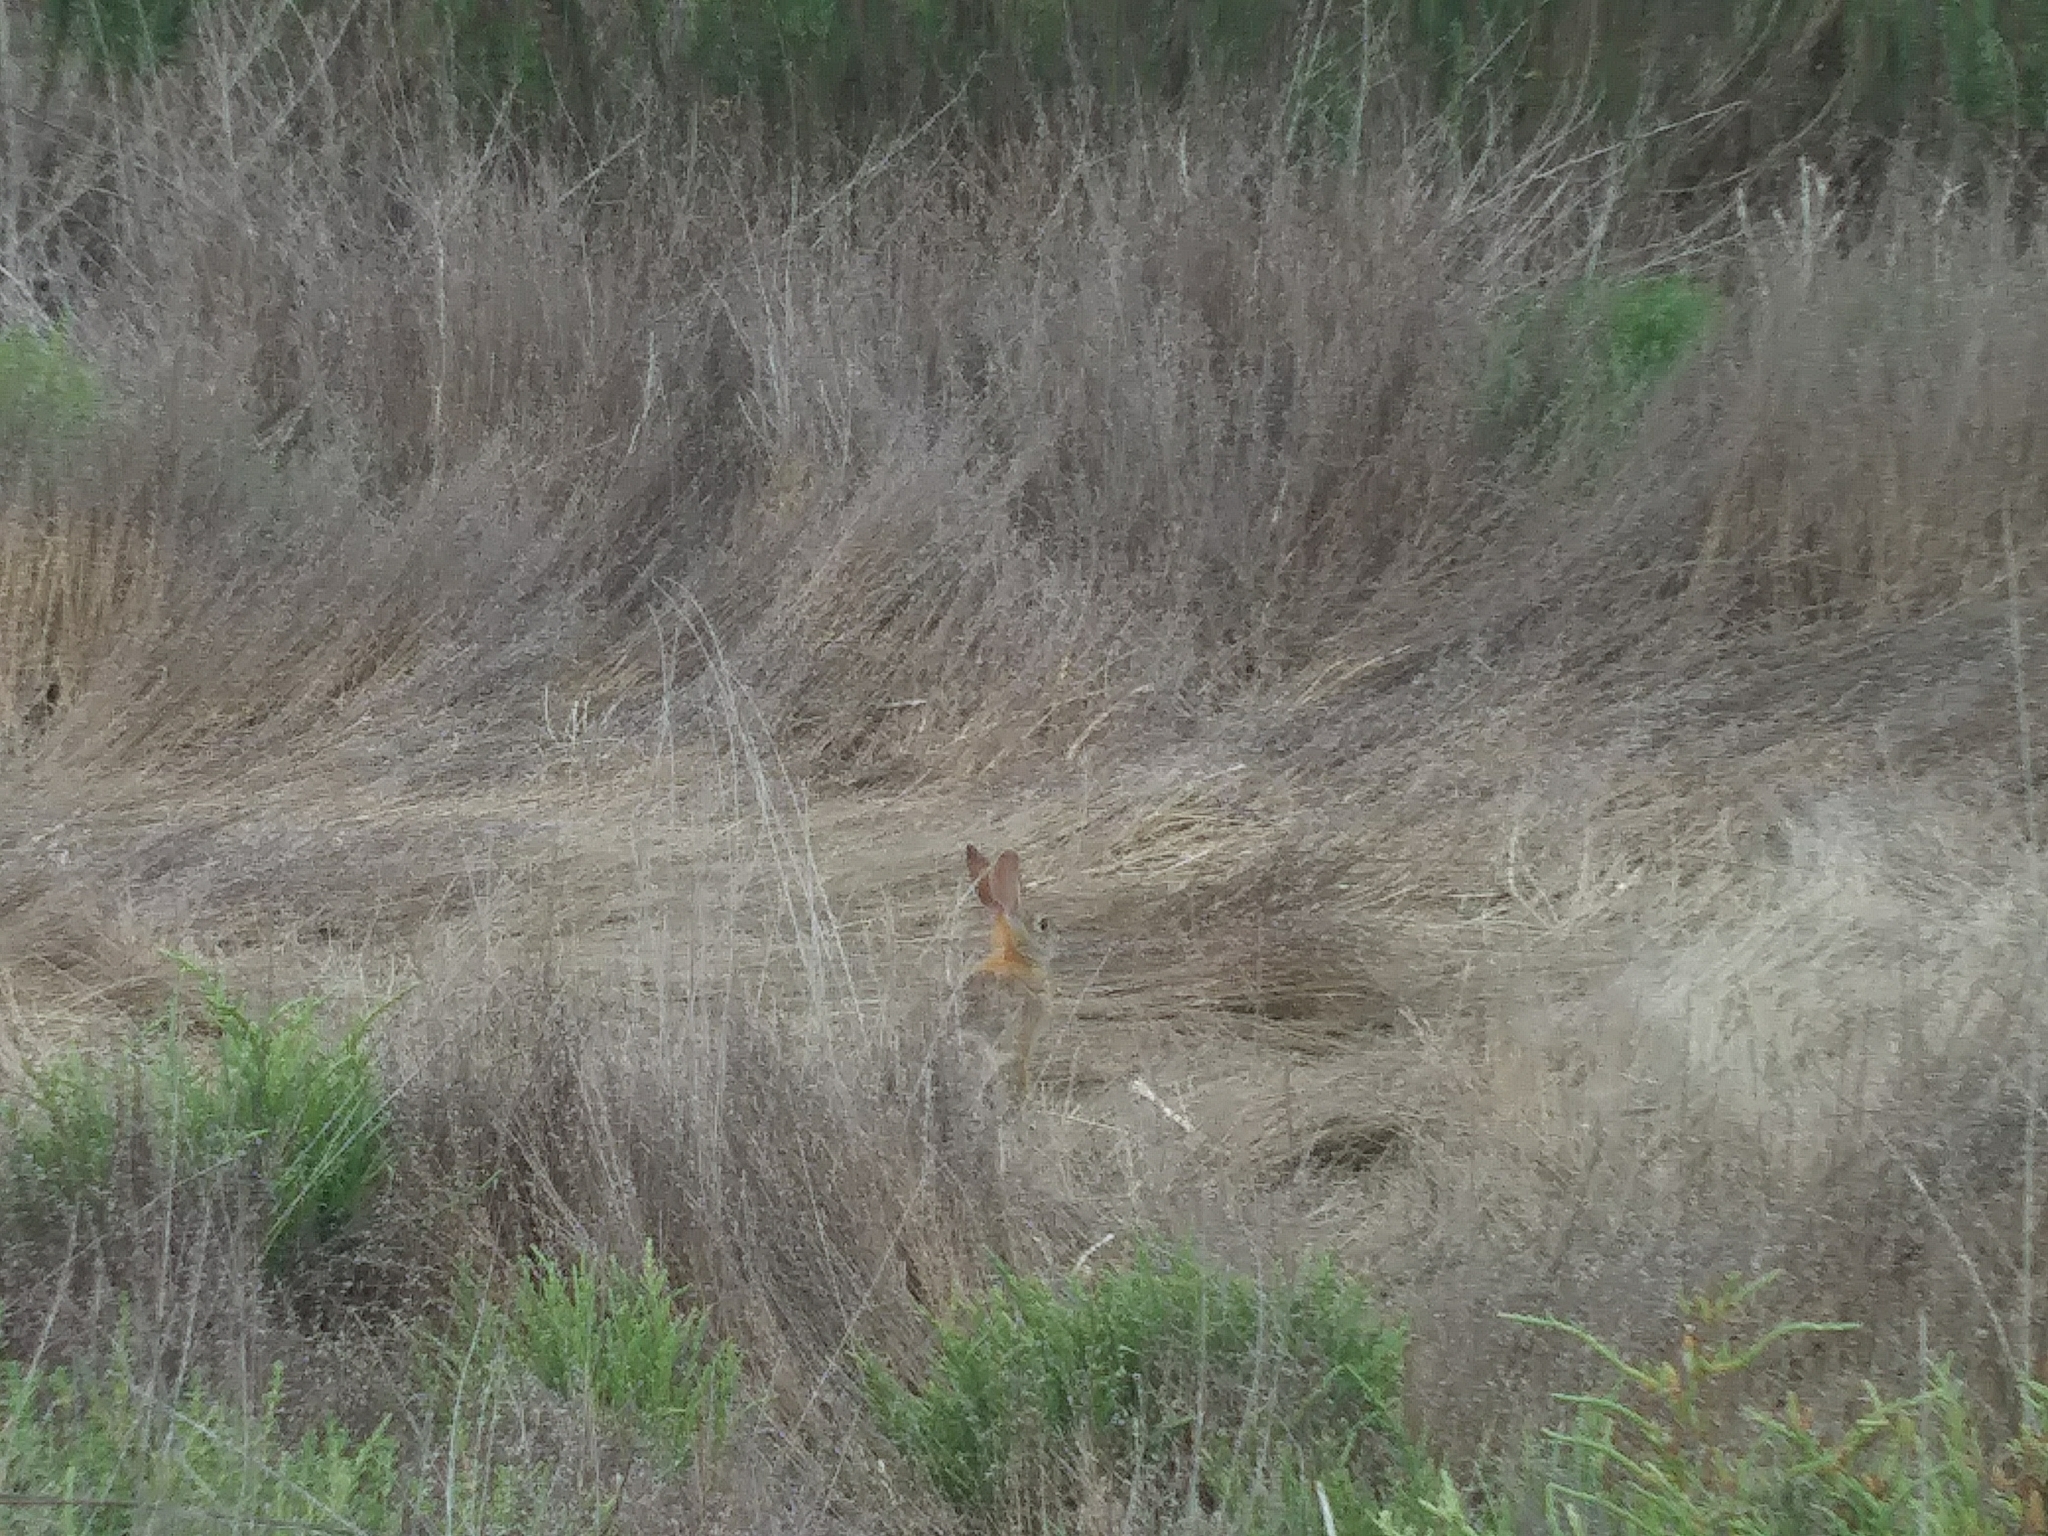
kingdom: Animalia
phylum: Chordata
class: Mammalia
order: Lagomorpha
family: Leporidae
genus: Sylvilagus
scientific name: Sylvilagus audubonii
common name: Desert cottontail
